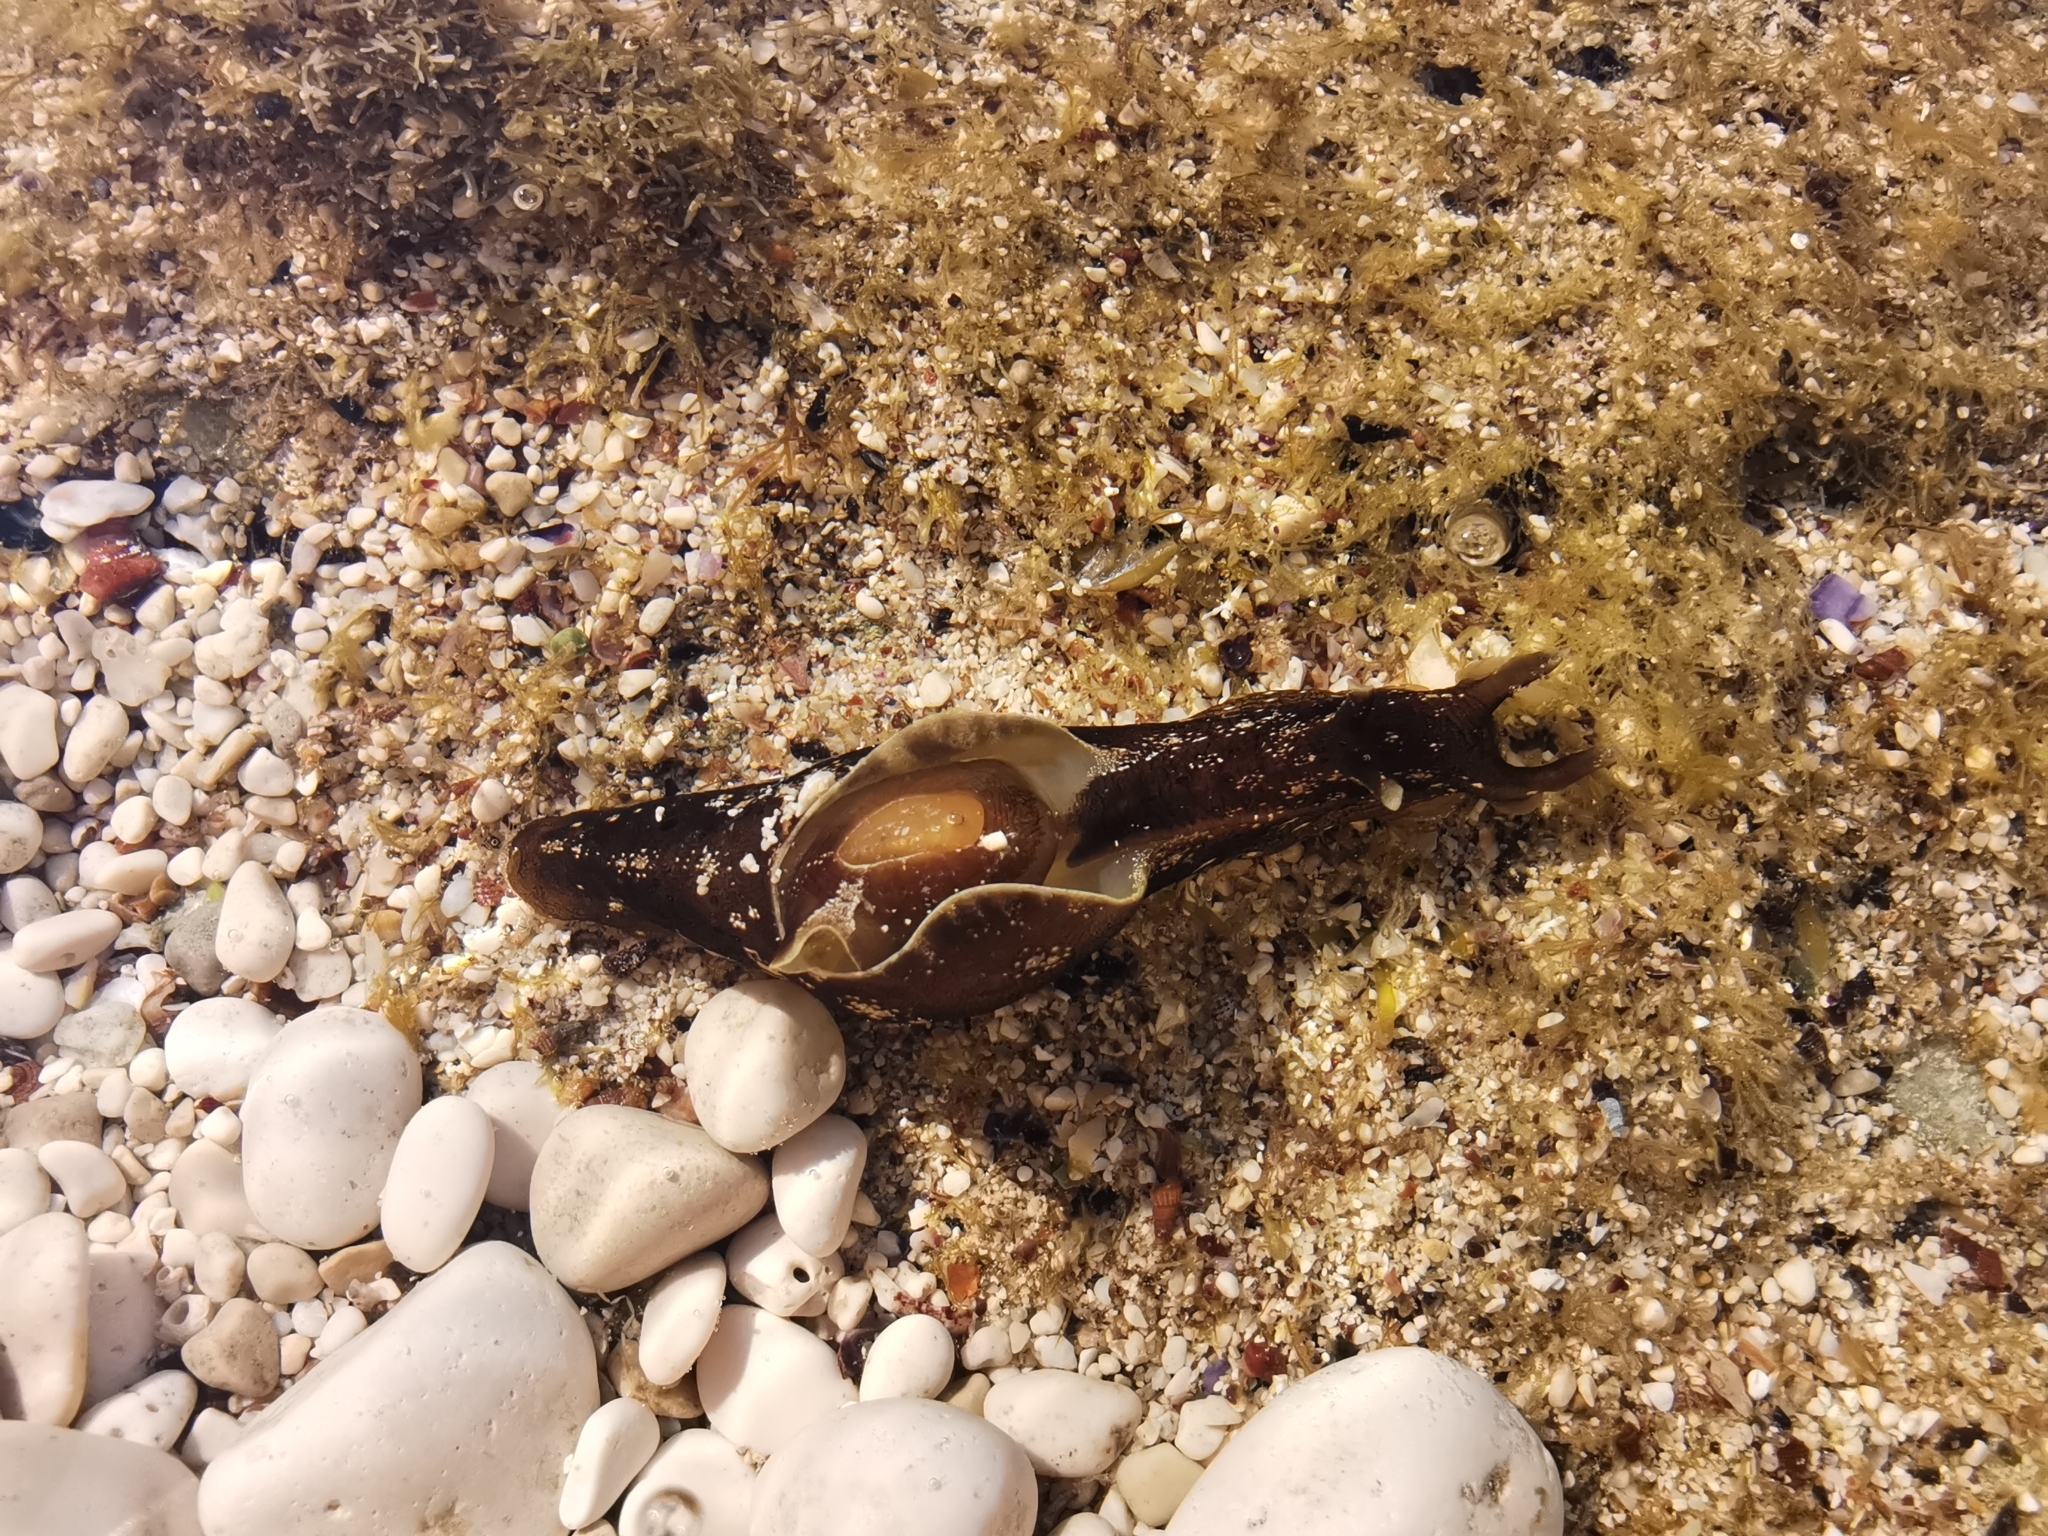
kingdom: Animalia
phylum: Mollusca
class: Gastropoda
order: Aplysiida
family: Aplysiidae
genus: Aplysia
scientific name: Aplysia punctata
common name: Common sea hare
